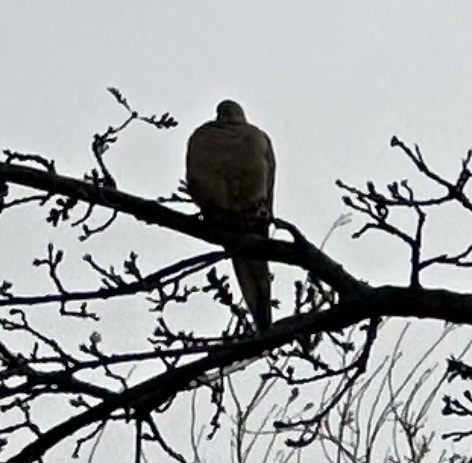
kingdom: Animalia
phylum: Chordata
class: Aves
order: Columbiformes
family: Columbidae
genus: Zenaida
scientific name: Zenaida macroura
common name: Mourning dove
